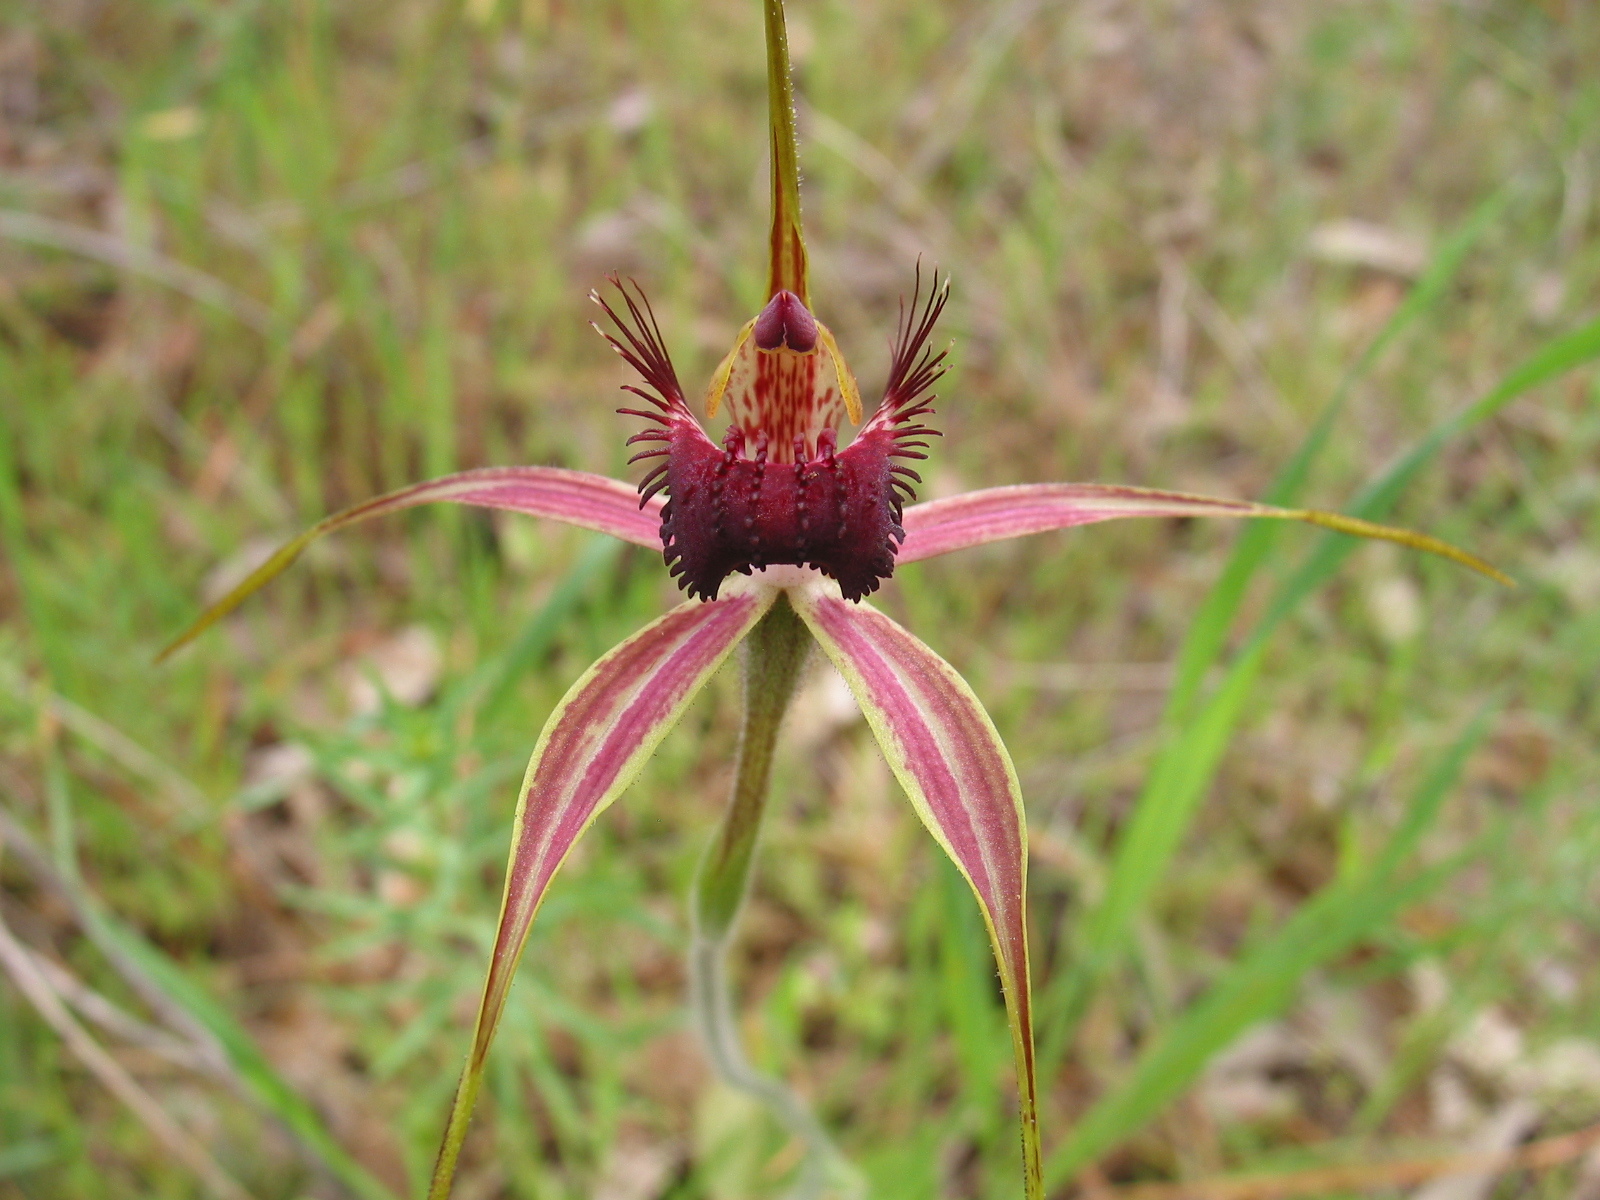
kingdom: Plantae
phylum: Tracheophyta
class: Liliopsida
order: Asparagales
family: Orchidaceae
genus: Caladenia
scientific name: Caladenia arenicola
